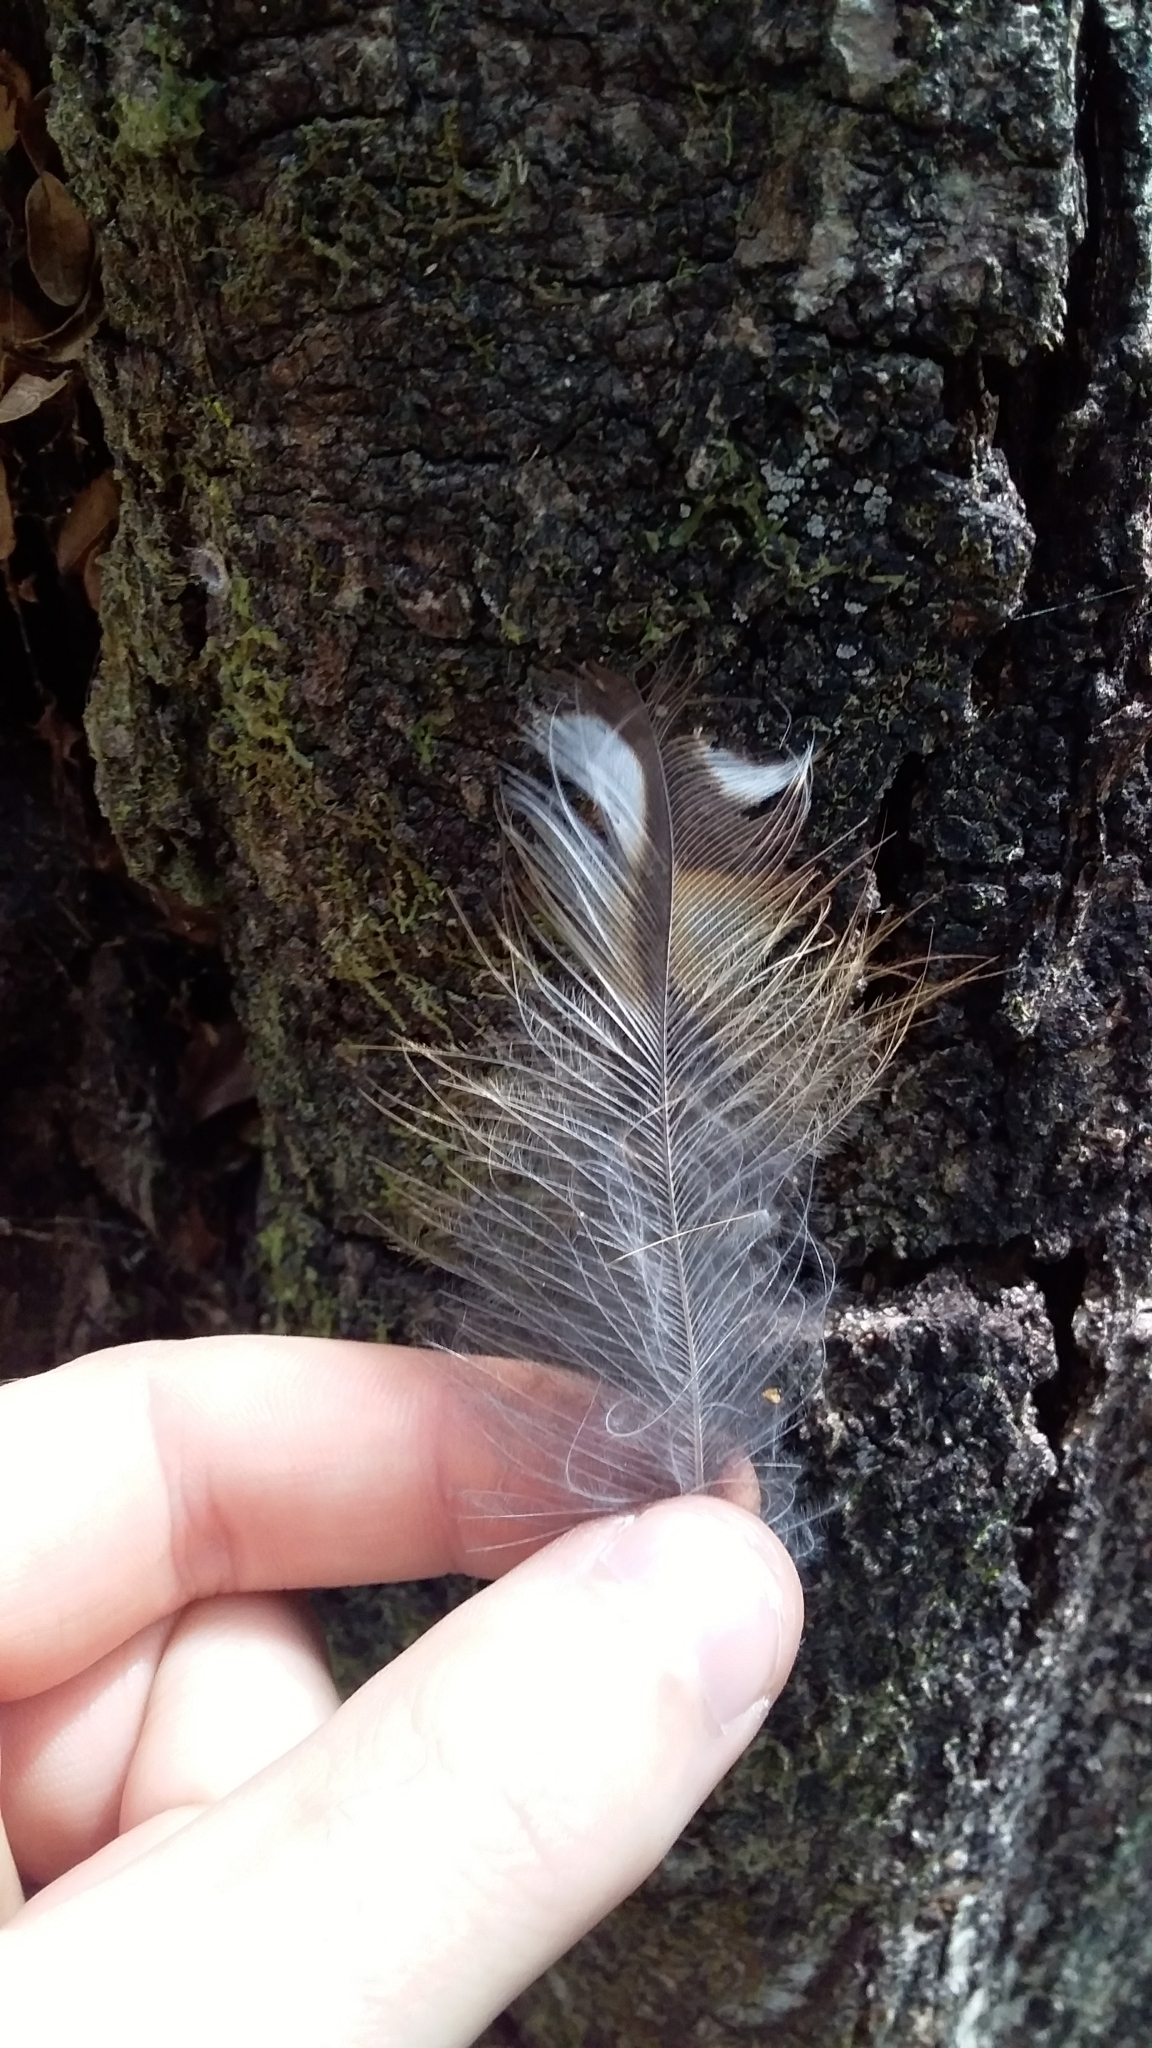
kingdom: Animalia
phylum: Chordata
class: Aves
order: Strigiformes
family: Strigidae
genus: Ninox
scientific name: Ninox novaeseelandiae
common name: Morepork
